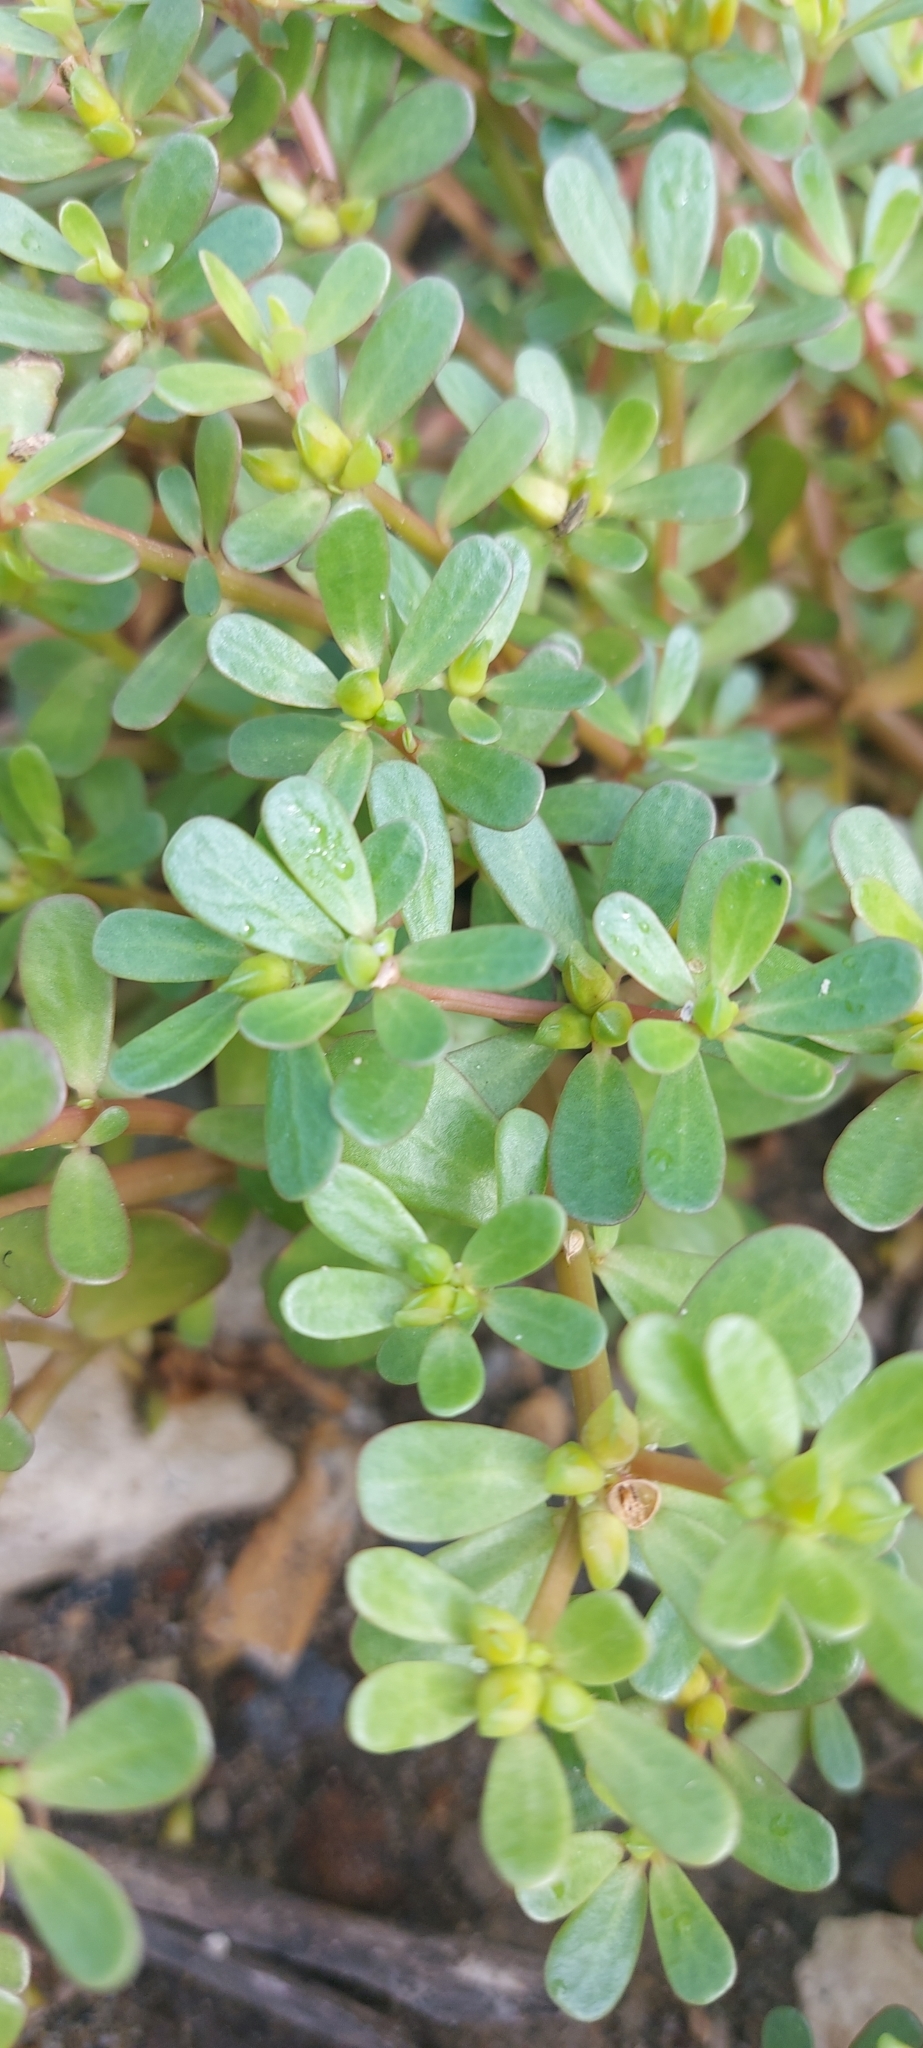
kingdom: Plantae
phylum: Tracheophyta
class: Magnoliopsida
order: Caryophyllales
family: Portulacaceae
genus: Portulaca
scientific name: Portulaca oleracea
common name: Common purslane
